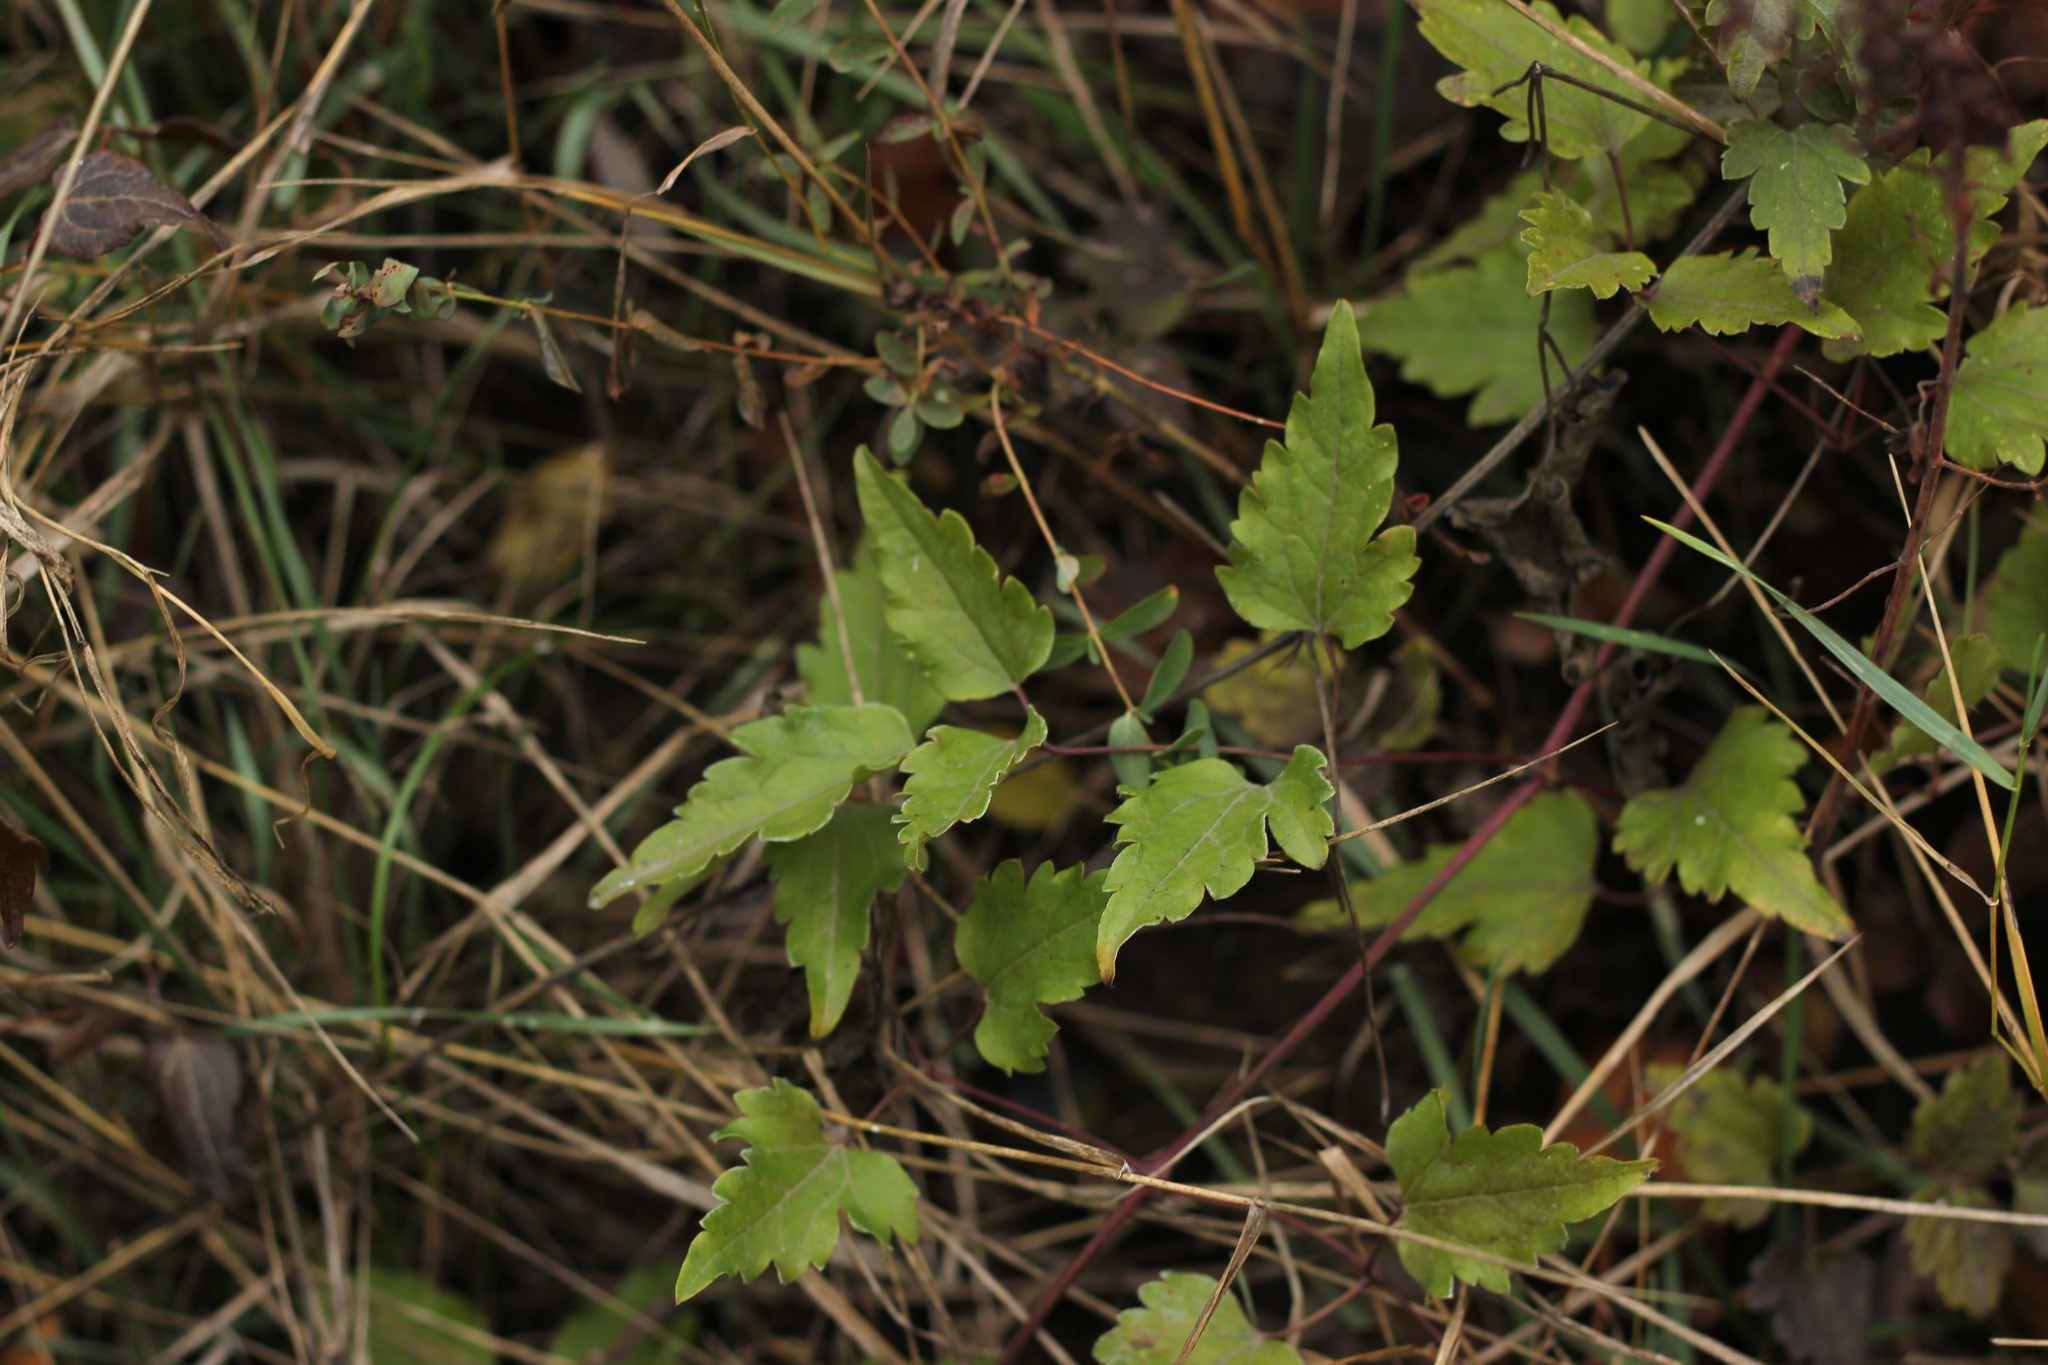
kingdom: Plantae
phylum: Tracheophyta
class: Magnoliopsida
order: Ranunculales
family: Ranunculaceae
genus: Clematis
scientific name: Clematis vitalba
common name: Evergreen clematis
